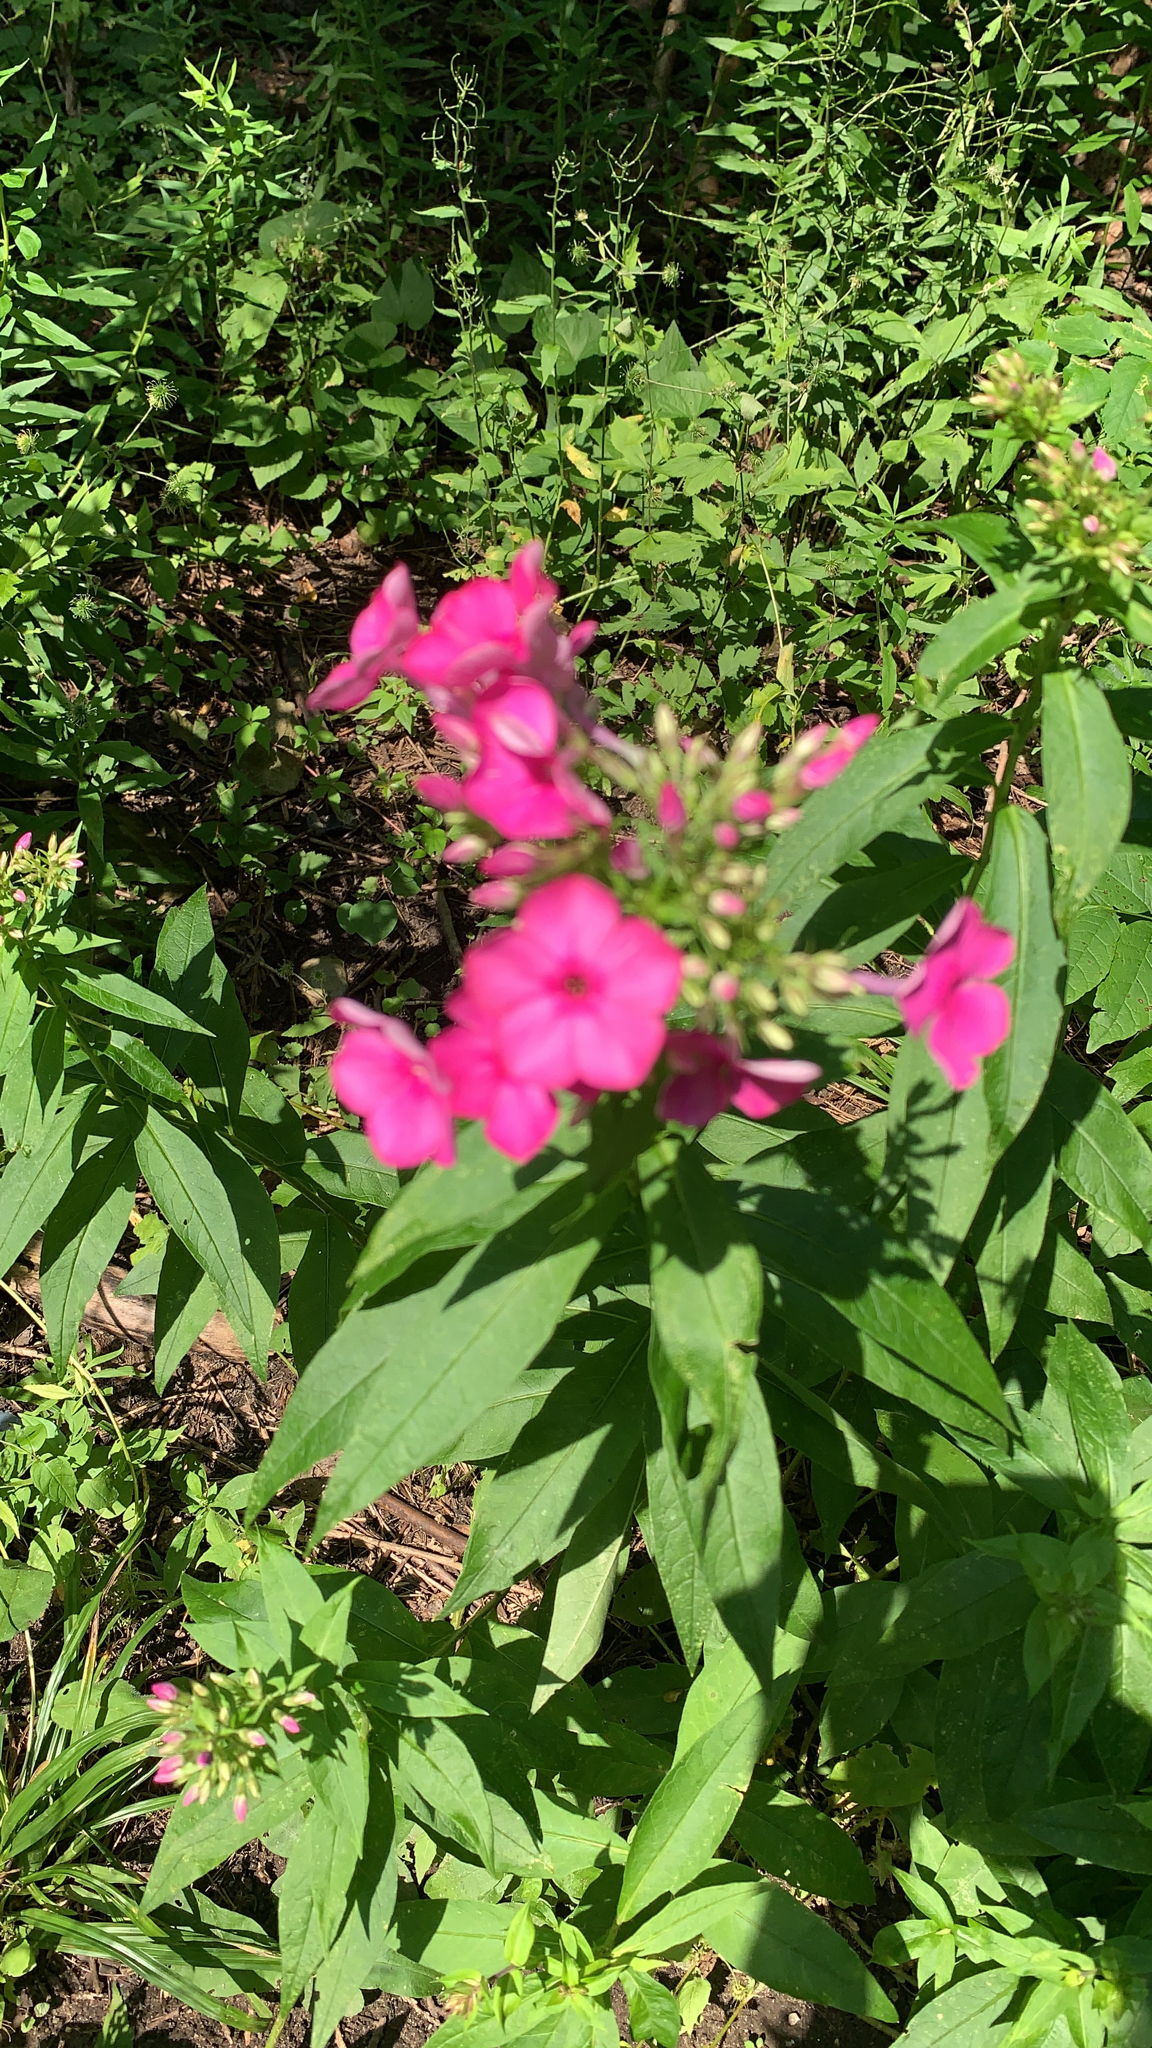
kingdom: Plantae
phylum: Tracheophyta
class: Magnoliopsida
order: Ericales
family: Polemoniaceae
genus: Phlox
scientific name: Phlox paniculata
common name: Fall phlox
